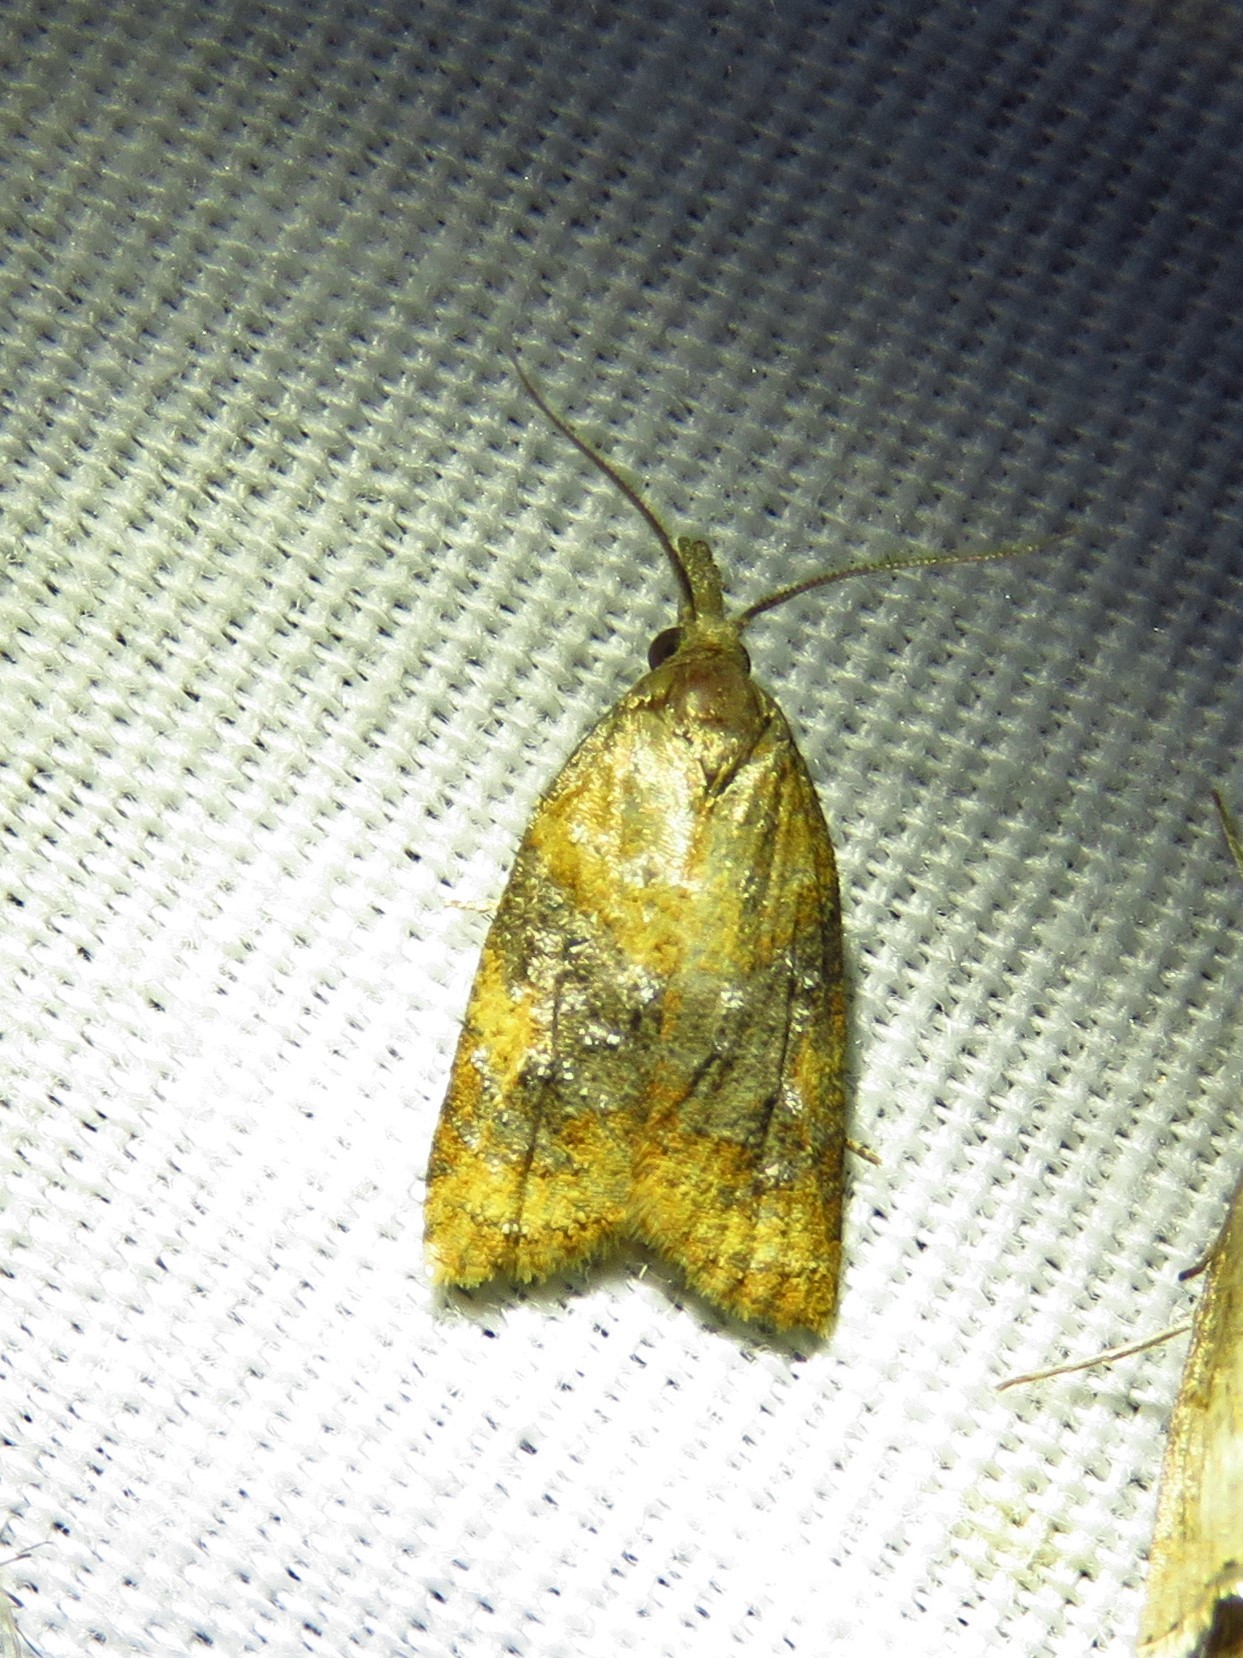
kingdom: Animalia
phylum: Arthropoda
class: Insecta
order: Lepidoptera
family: Tortricidae
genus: Platynota
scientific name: Platynota flavedana
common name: Black-shaded platynota moth
